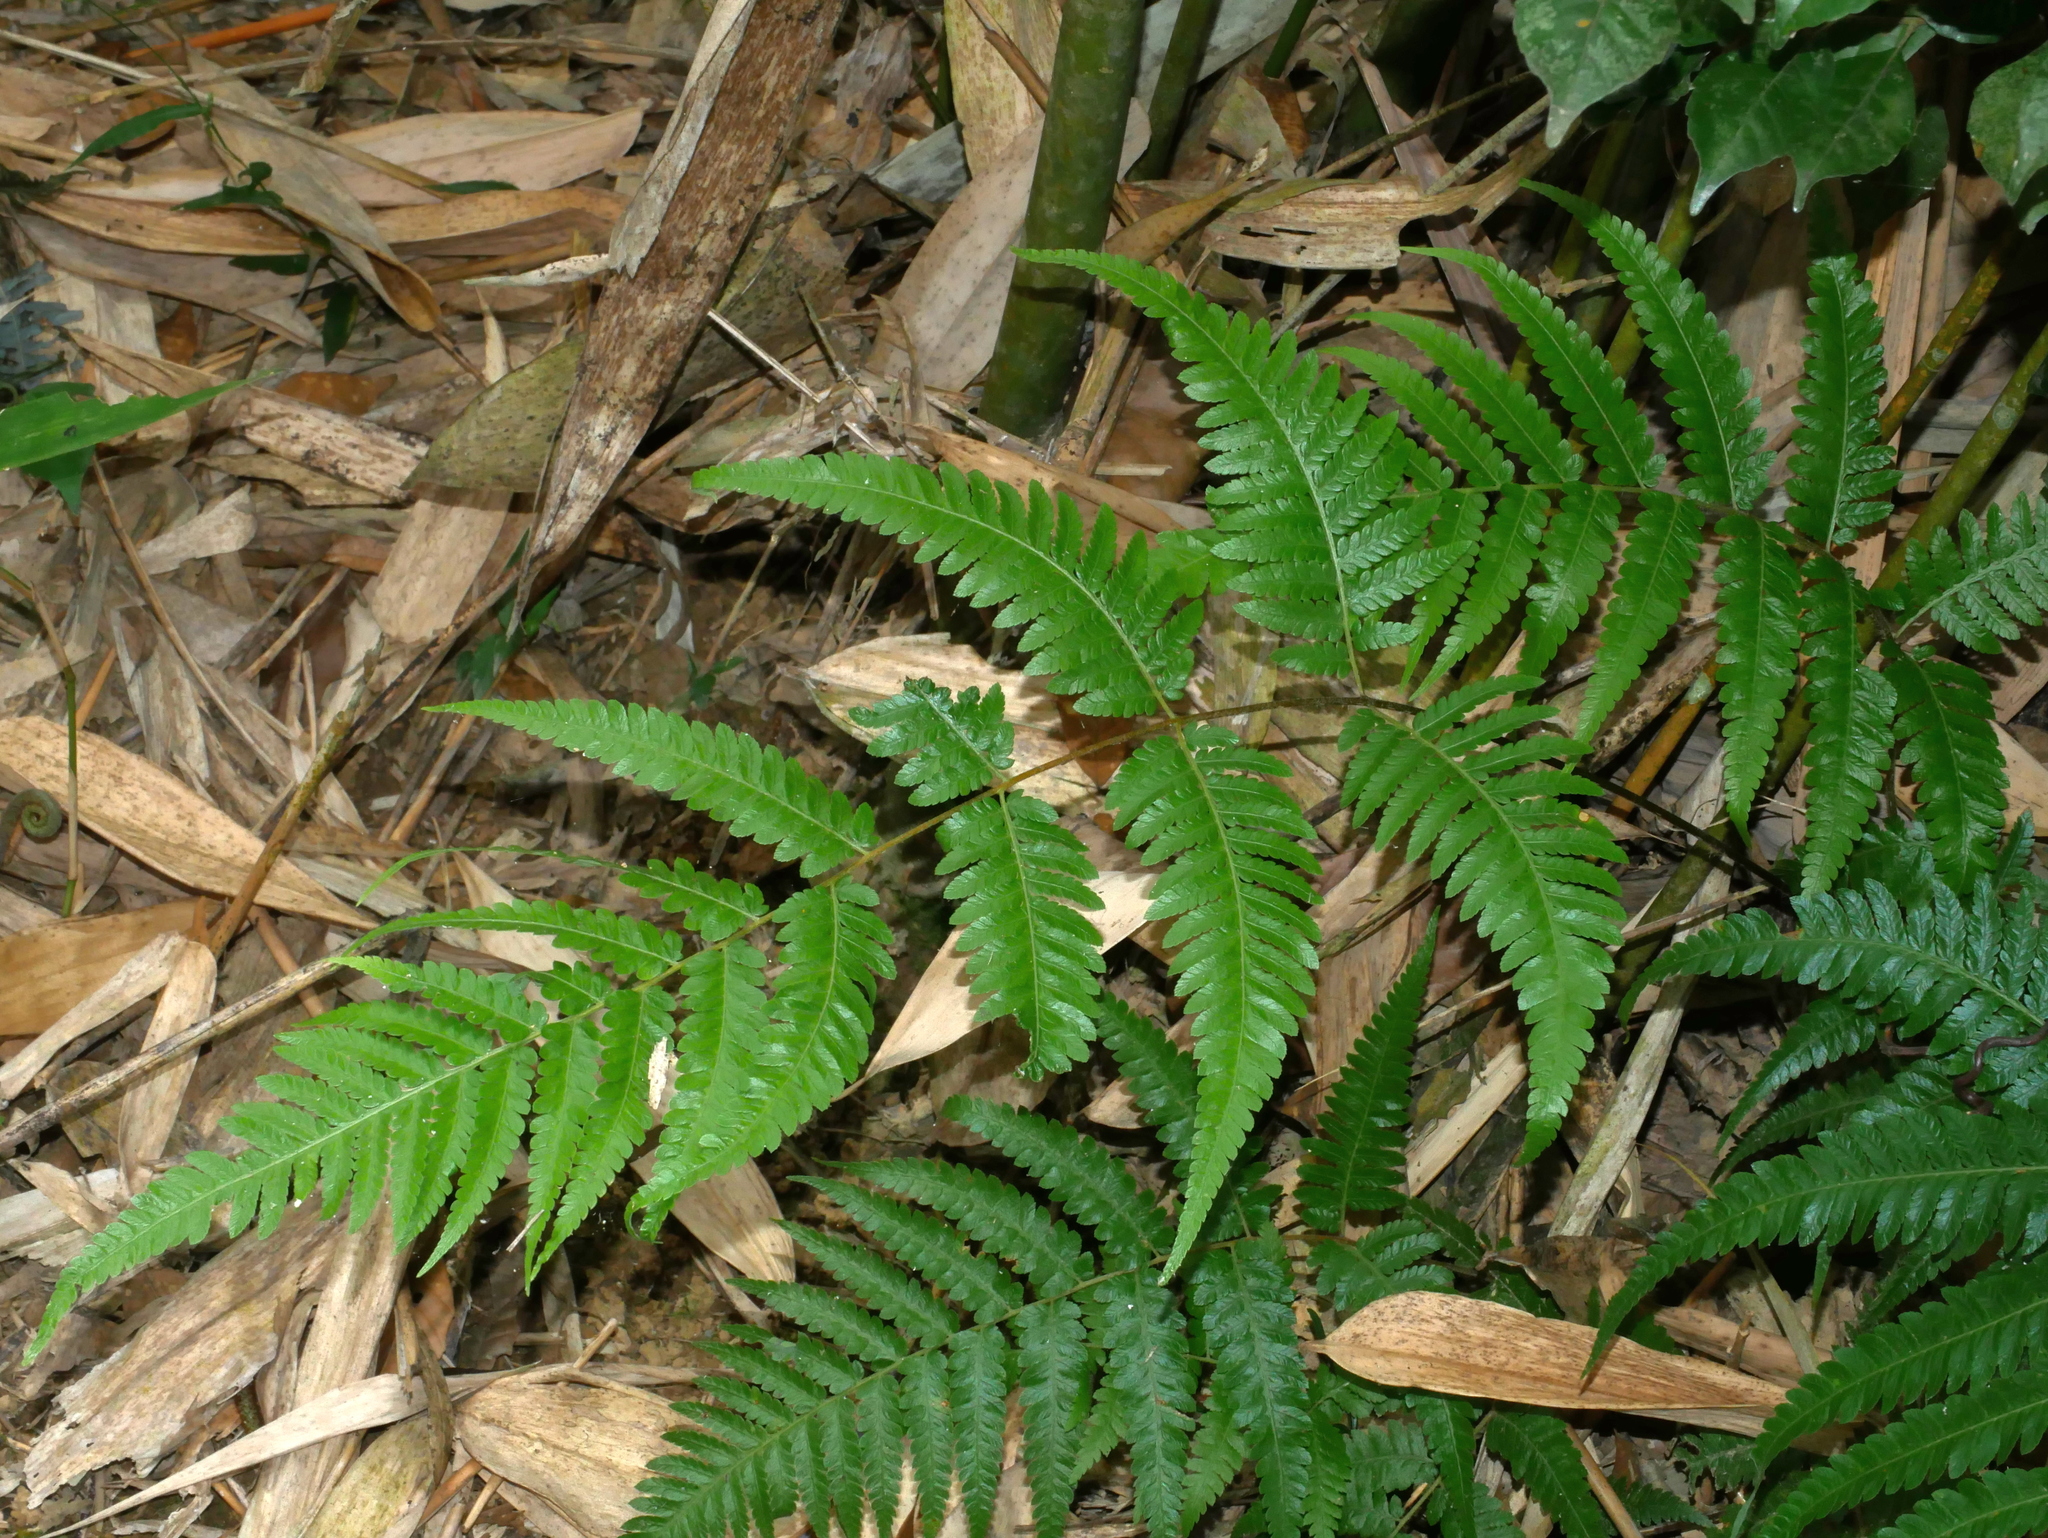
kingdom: Plantae
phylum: Tracheophyta
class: Polypodiopsida
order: Cyatheales
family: Cibotiaceae
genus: Cibotium
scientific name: Cibotium barometz
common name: Scythian-lamb
